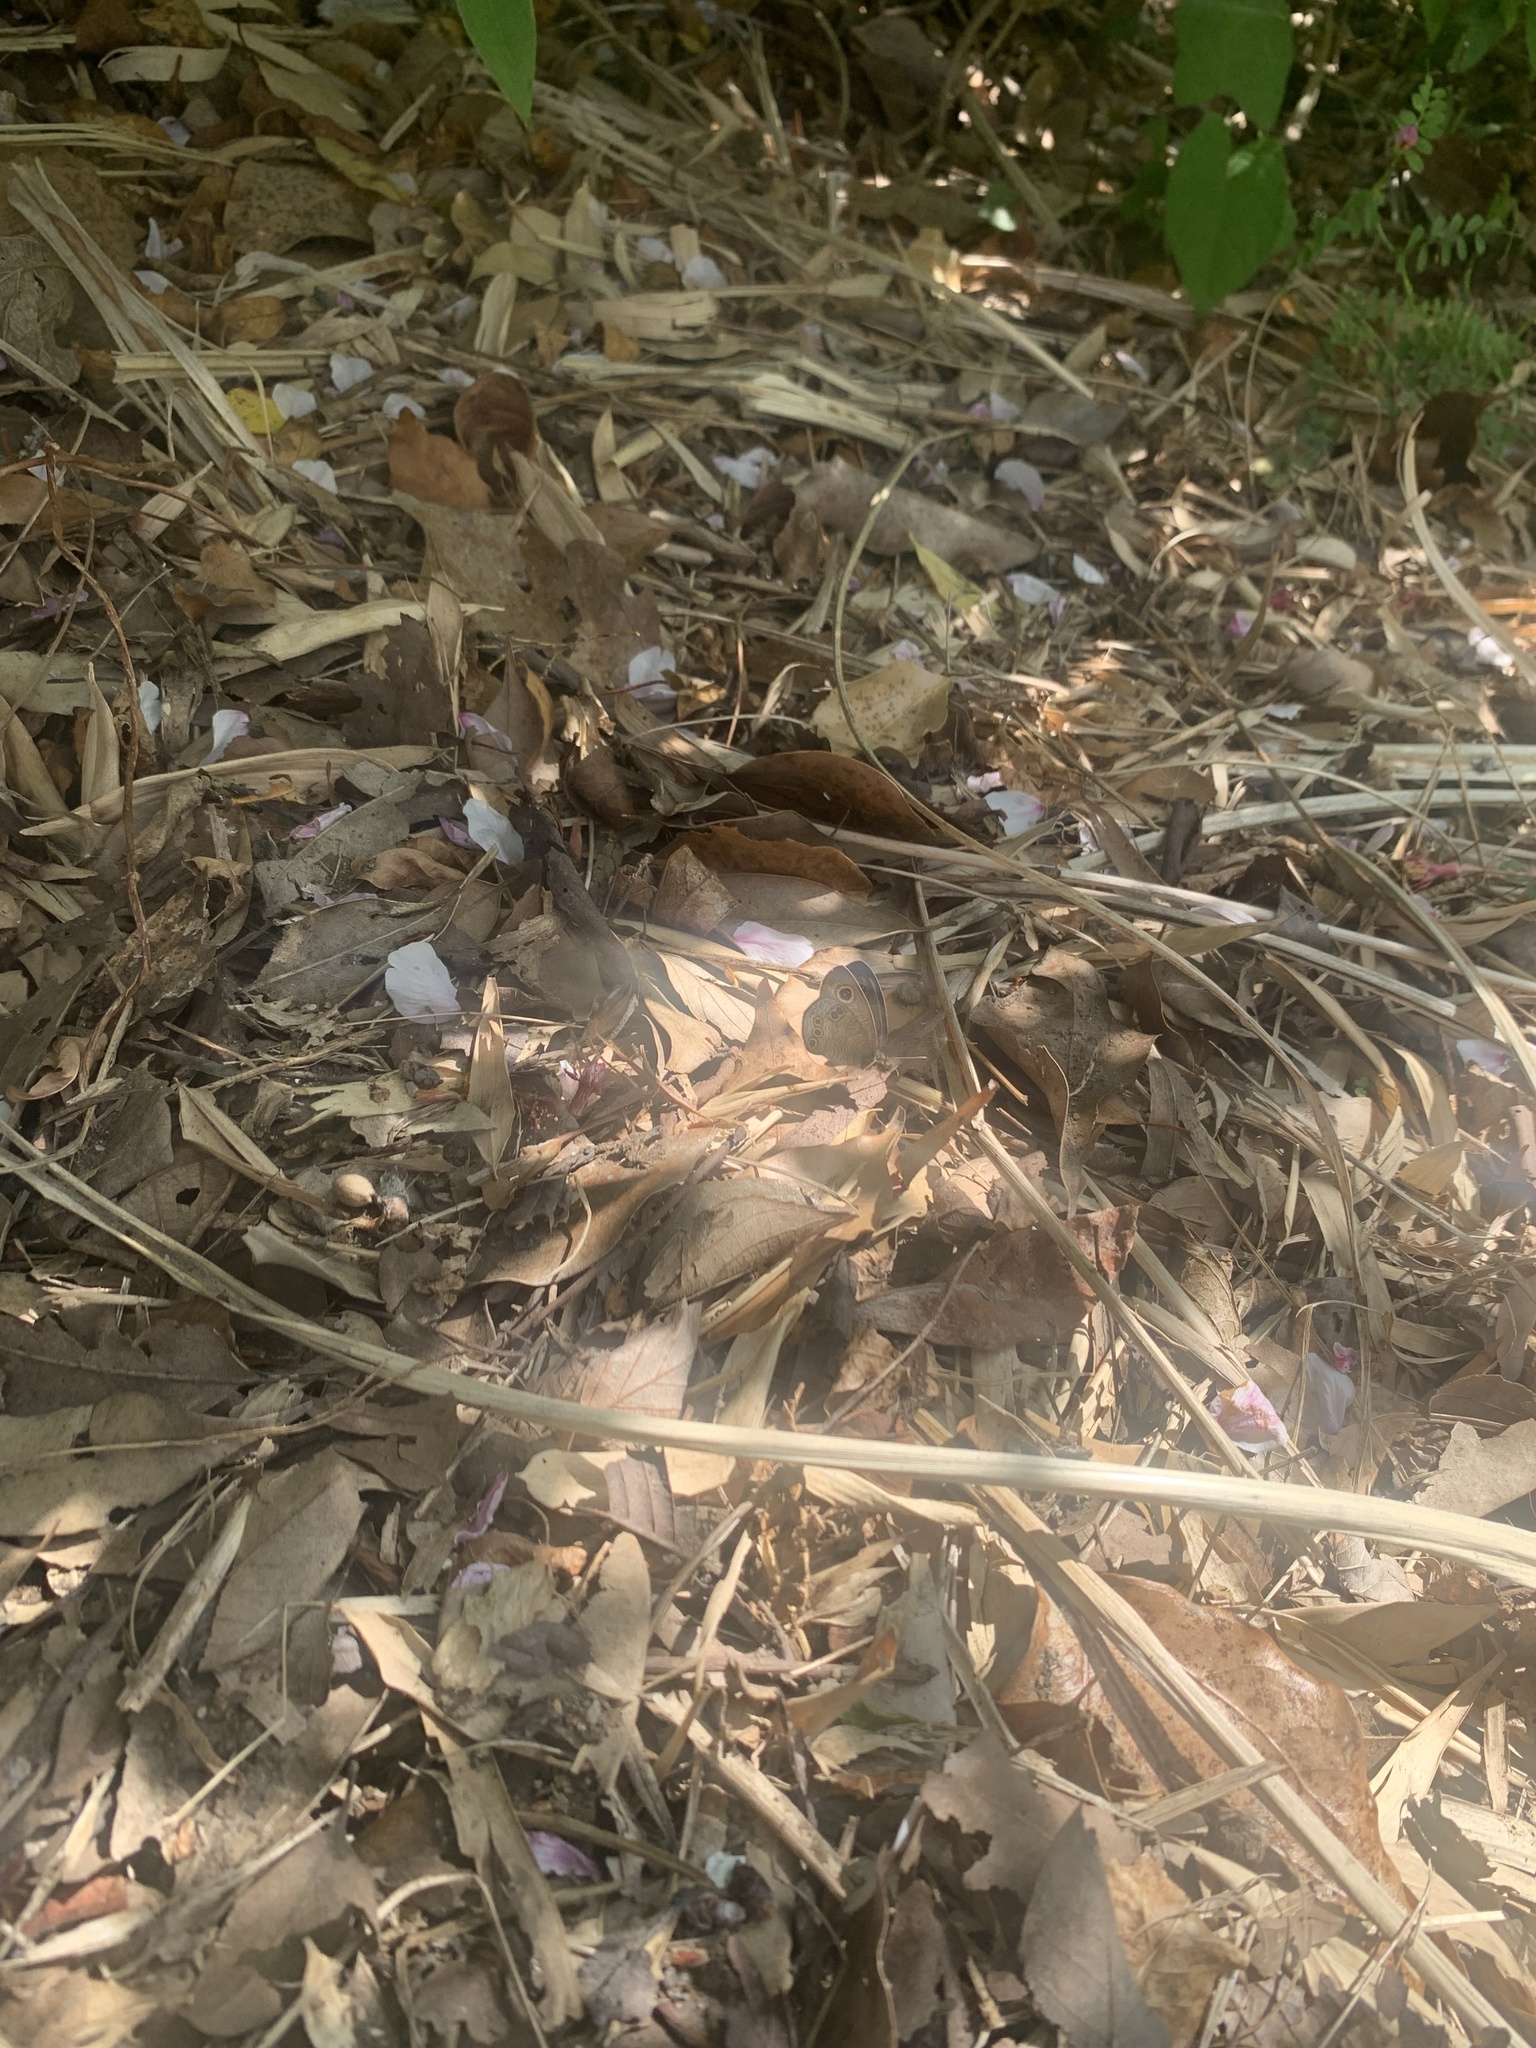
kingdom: Animalia
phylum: Arthropoda
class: Insecta
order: Lepidoptera
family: Nymphalidae
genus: Ypthima
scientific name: Ypthima argus
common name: Common fivering
